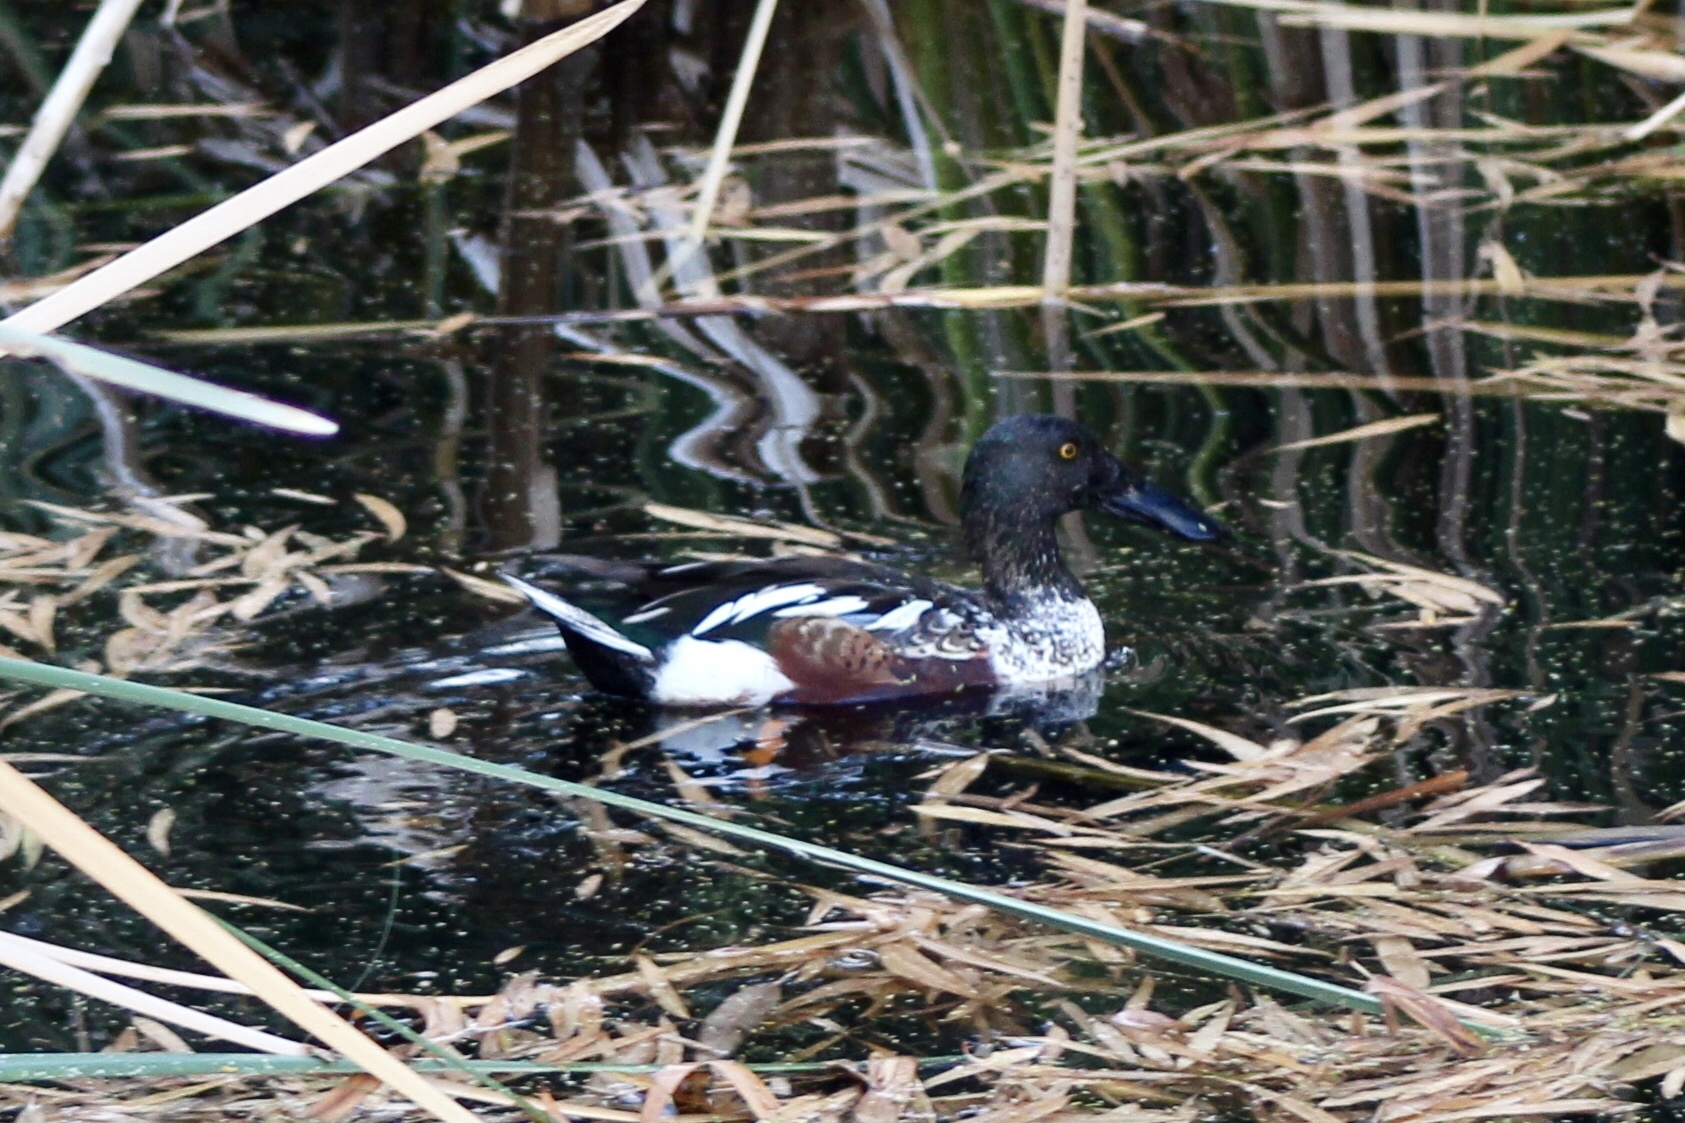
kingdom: Animalia
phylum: Chordata
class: Aves
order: Anseriformes
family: Anatidae
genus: Spatula
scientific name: Spatula clypeata
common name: Northern shoveler
